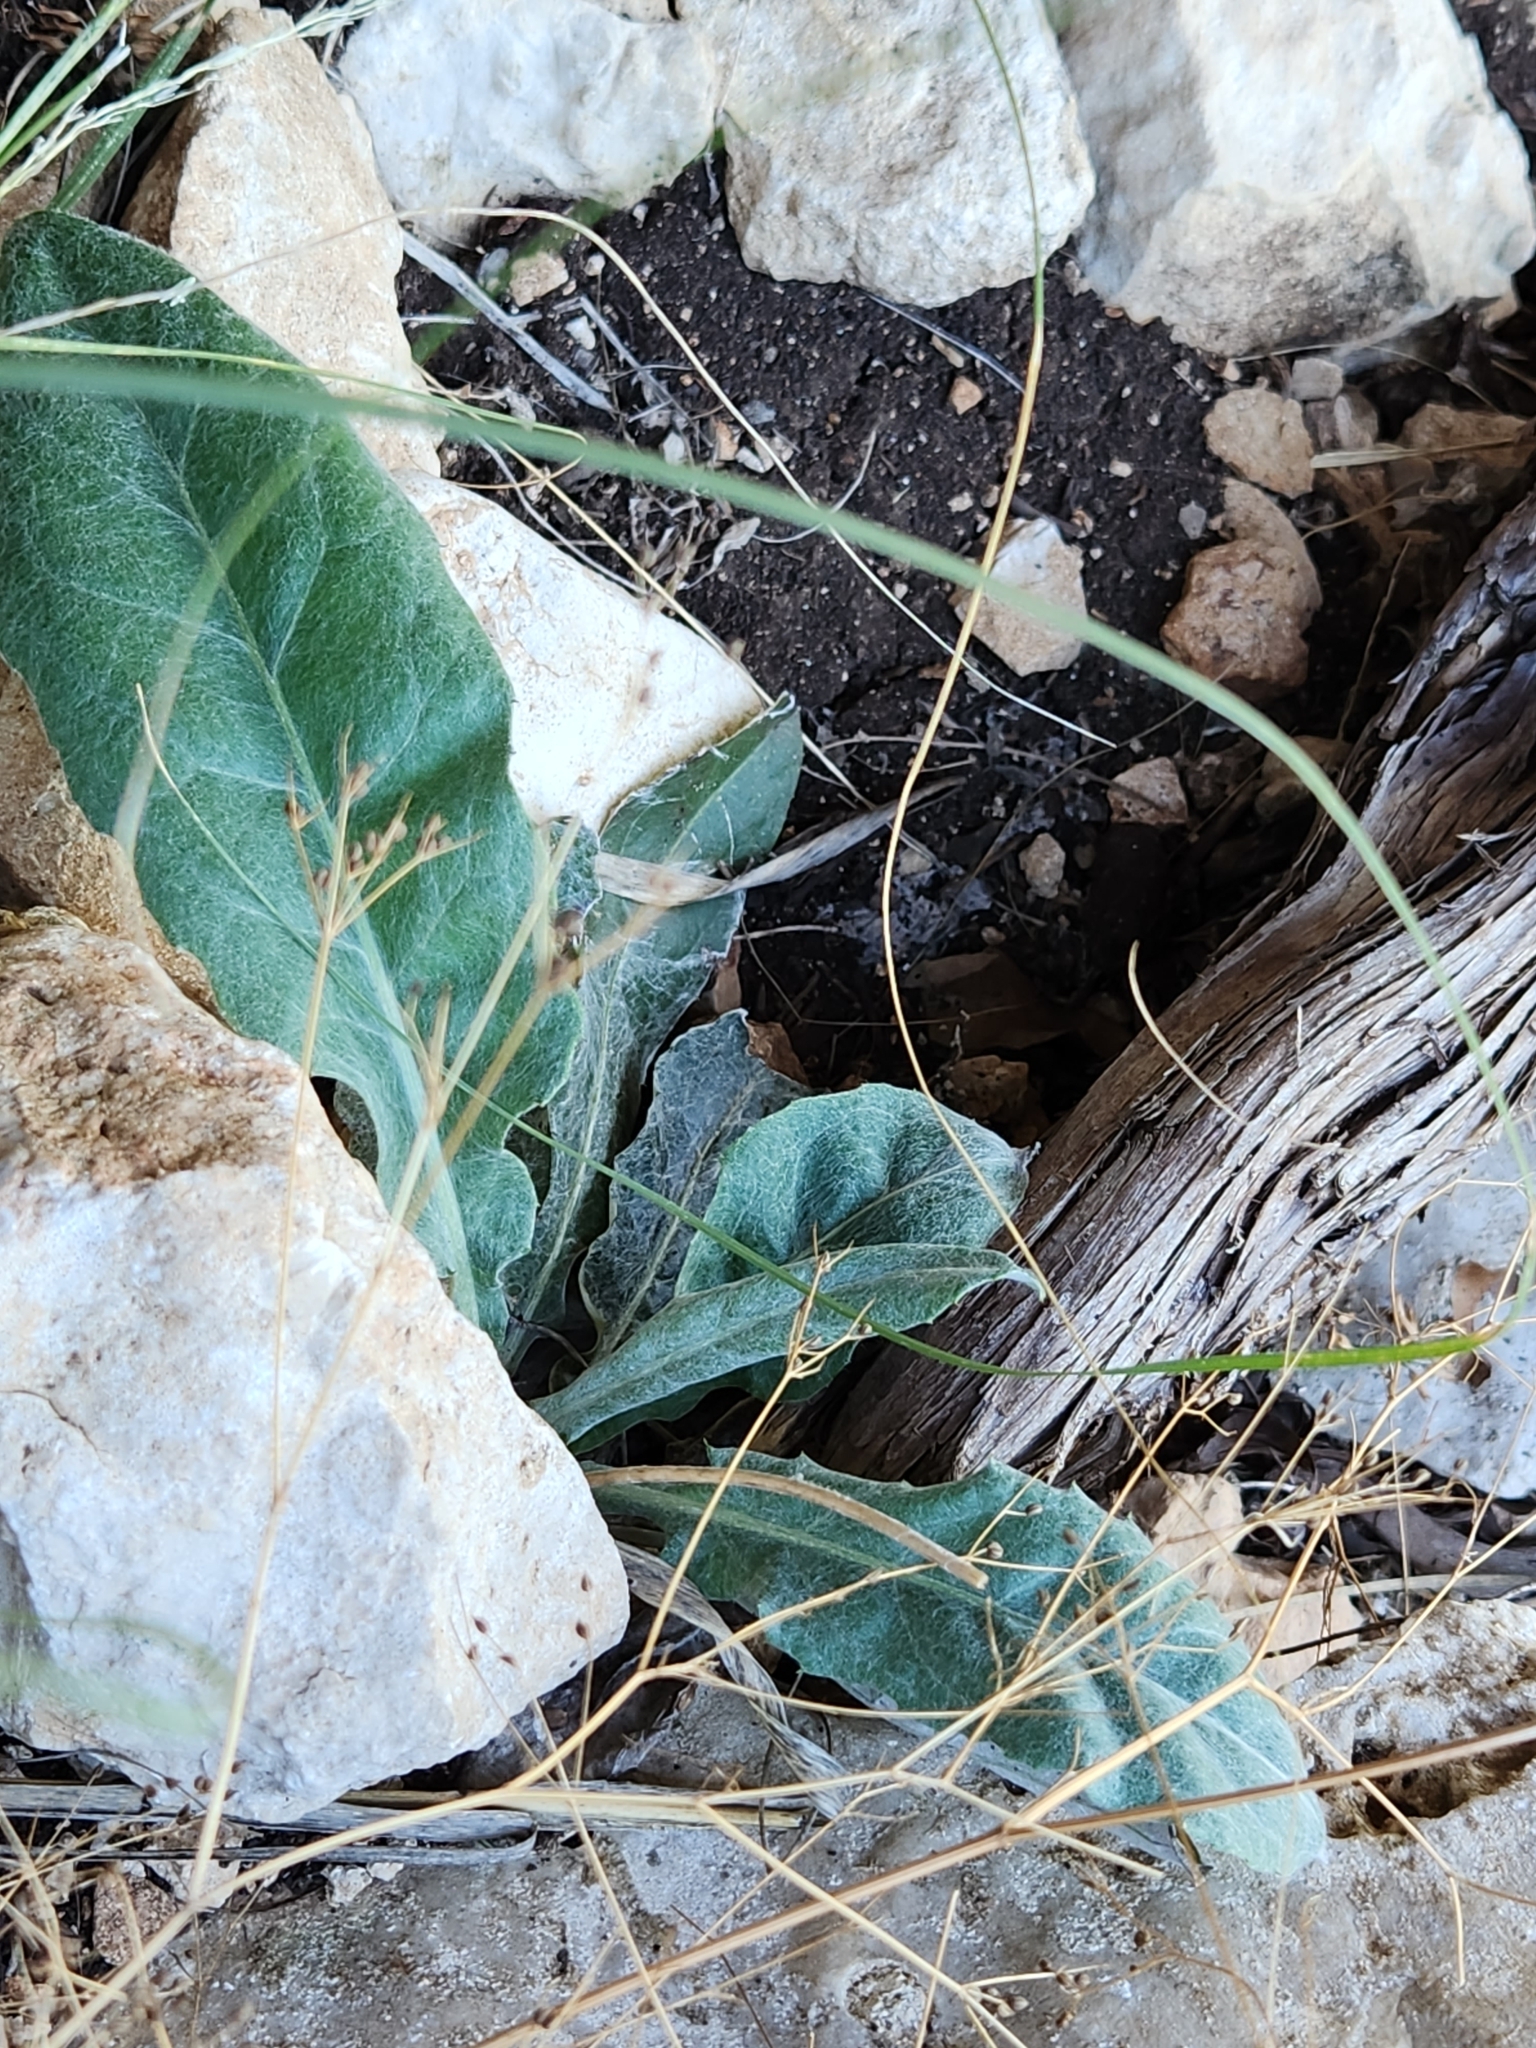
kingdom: Plantae
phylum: Tracheophyta
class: Magnoliopsida
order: Asterales
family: Asteraceae
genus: Chaptalia
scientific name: Chaptalia texana
